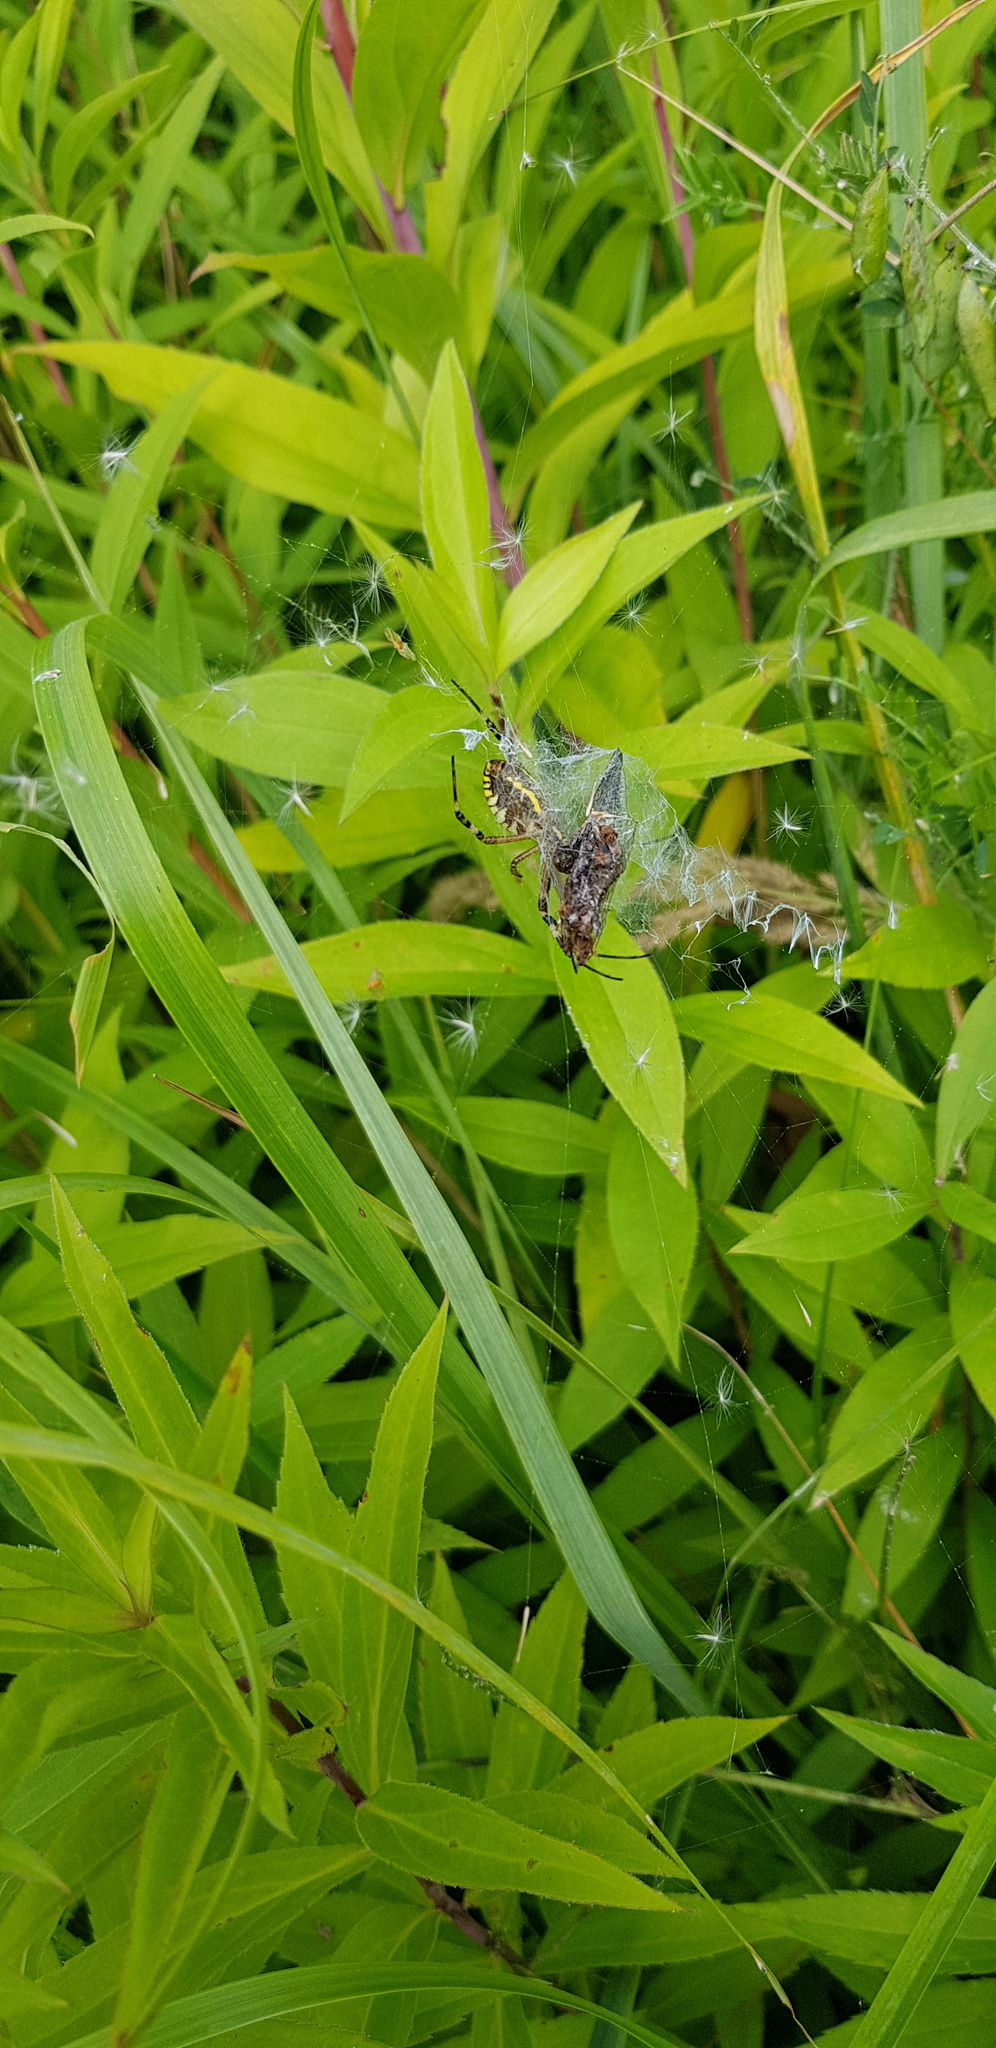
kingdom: Animalia
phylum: Arthropoda
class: Arachnida
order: Araneae
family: Araneidae
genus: Argiope
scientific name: Argiope bruennichi
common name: Wasp spider
